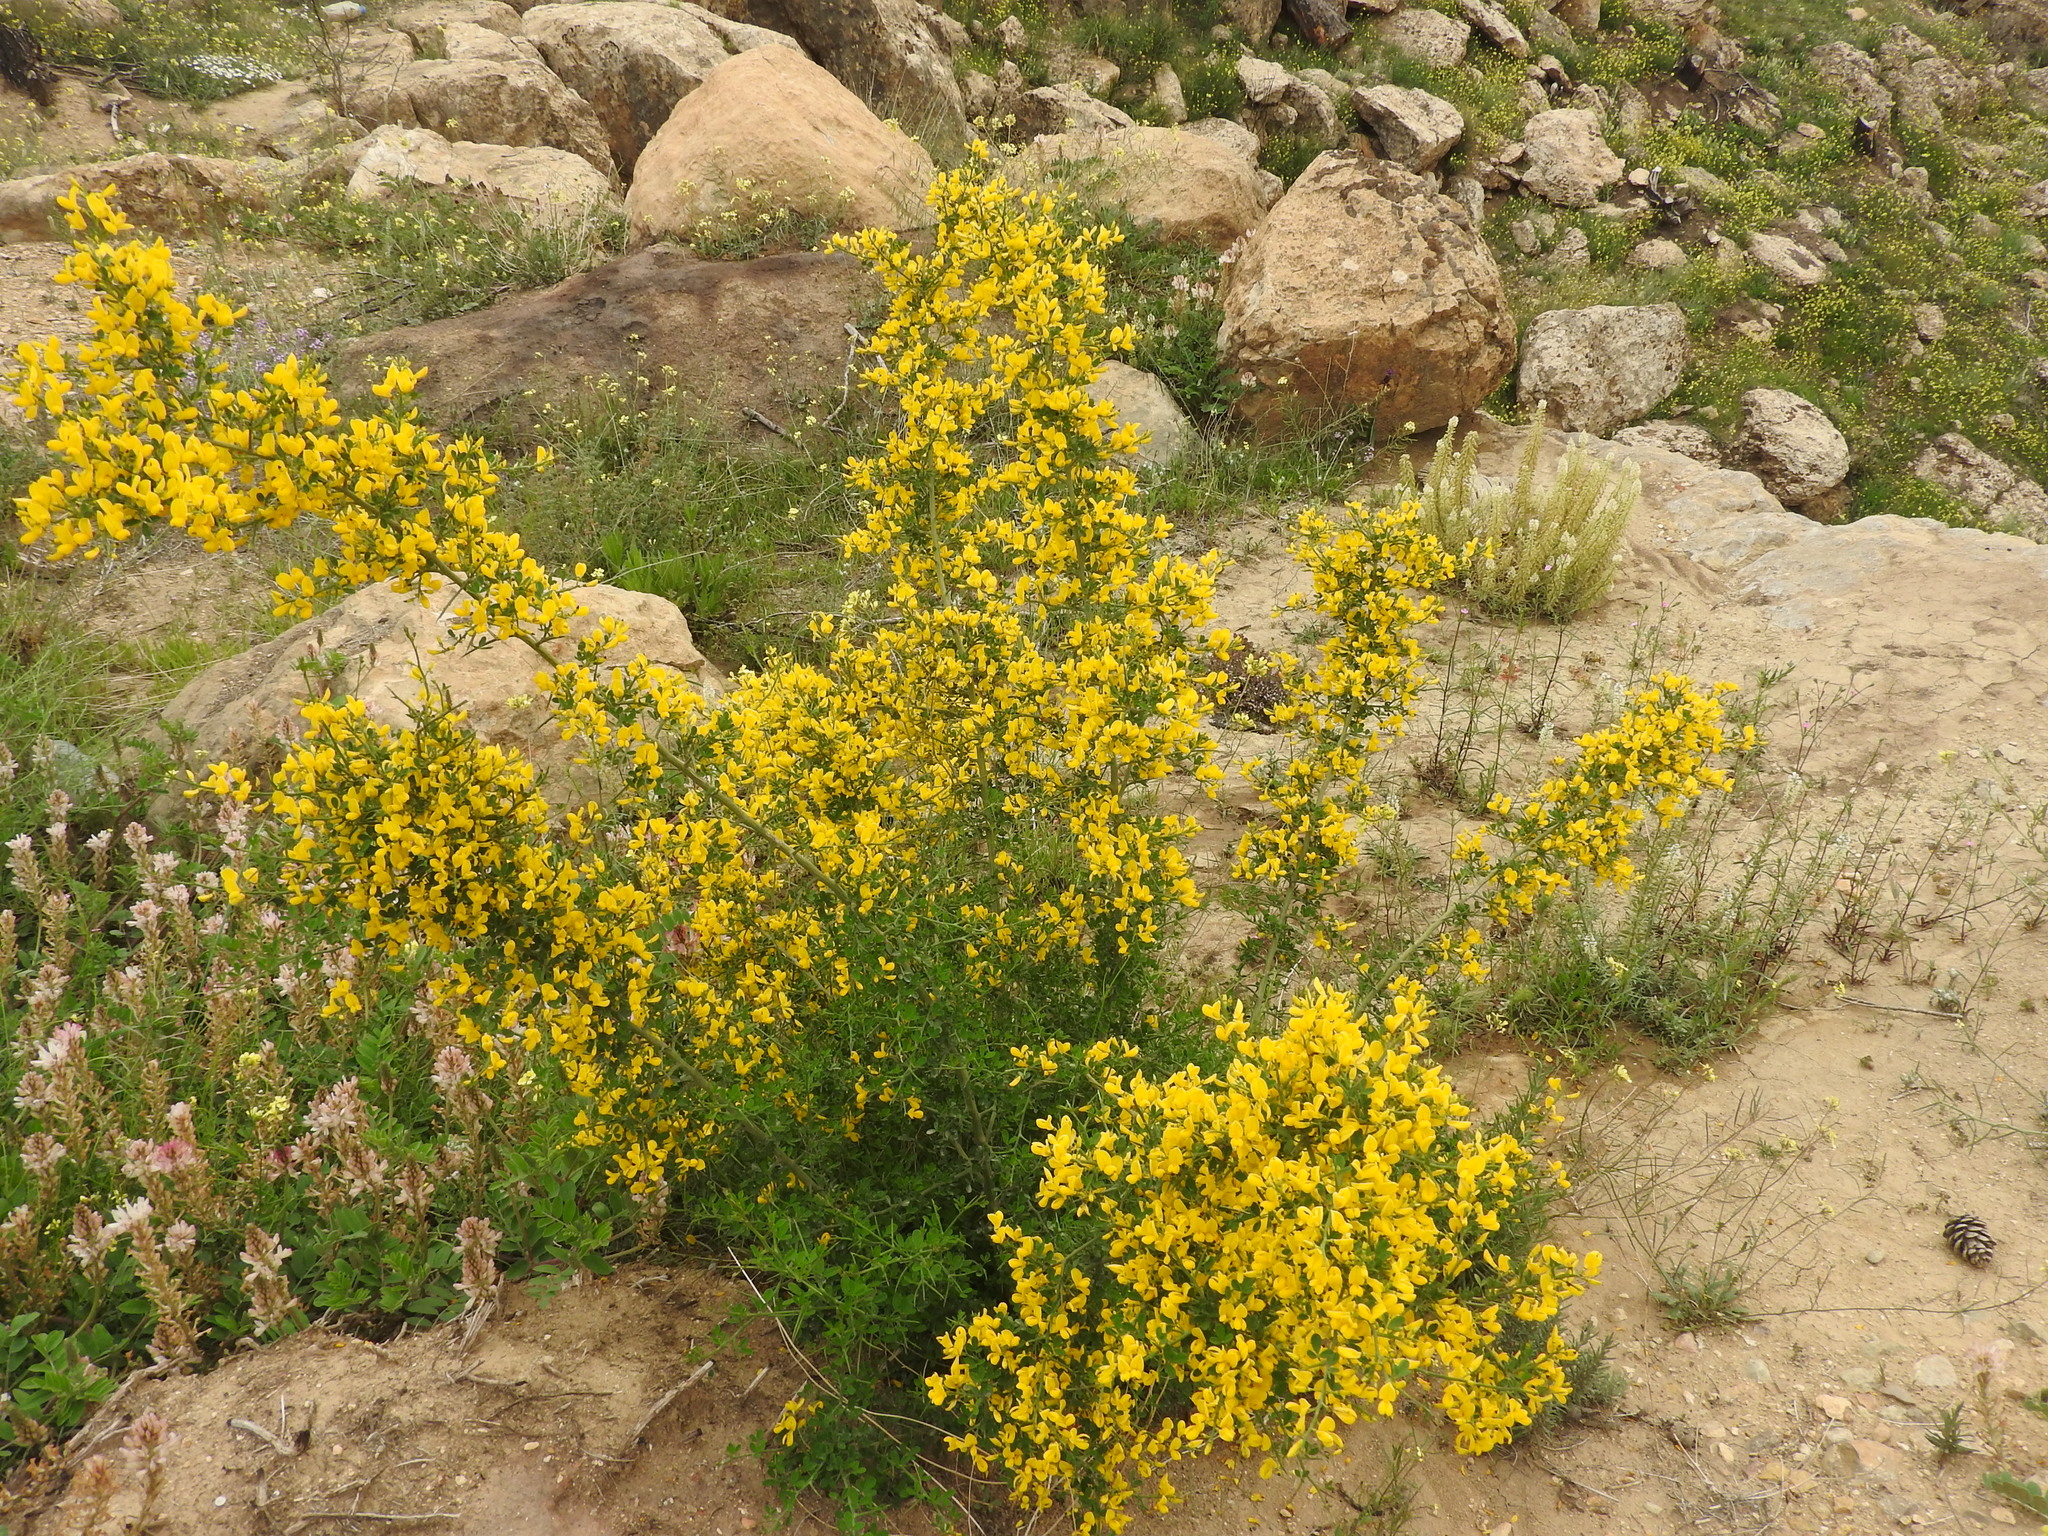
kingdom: Plantae
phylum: Tracheophyta
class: Magnoliopsida
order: Fabales
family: Fabaceae
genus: Calicotome
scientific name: Calicotome spinosa
